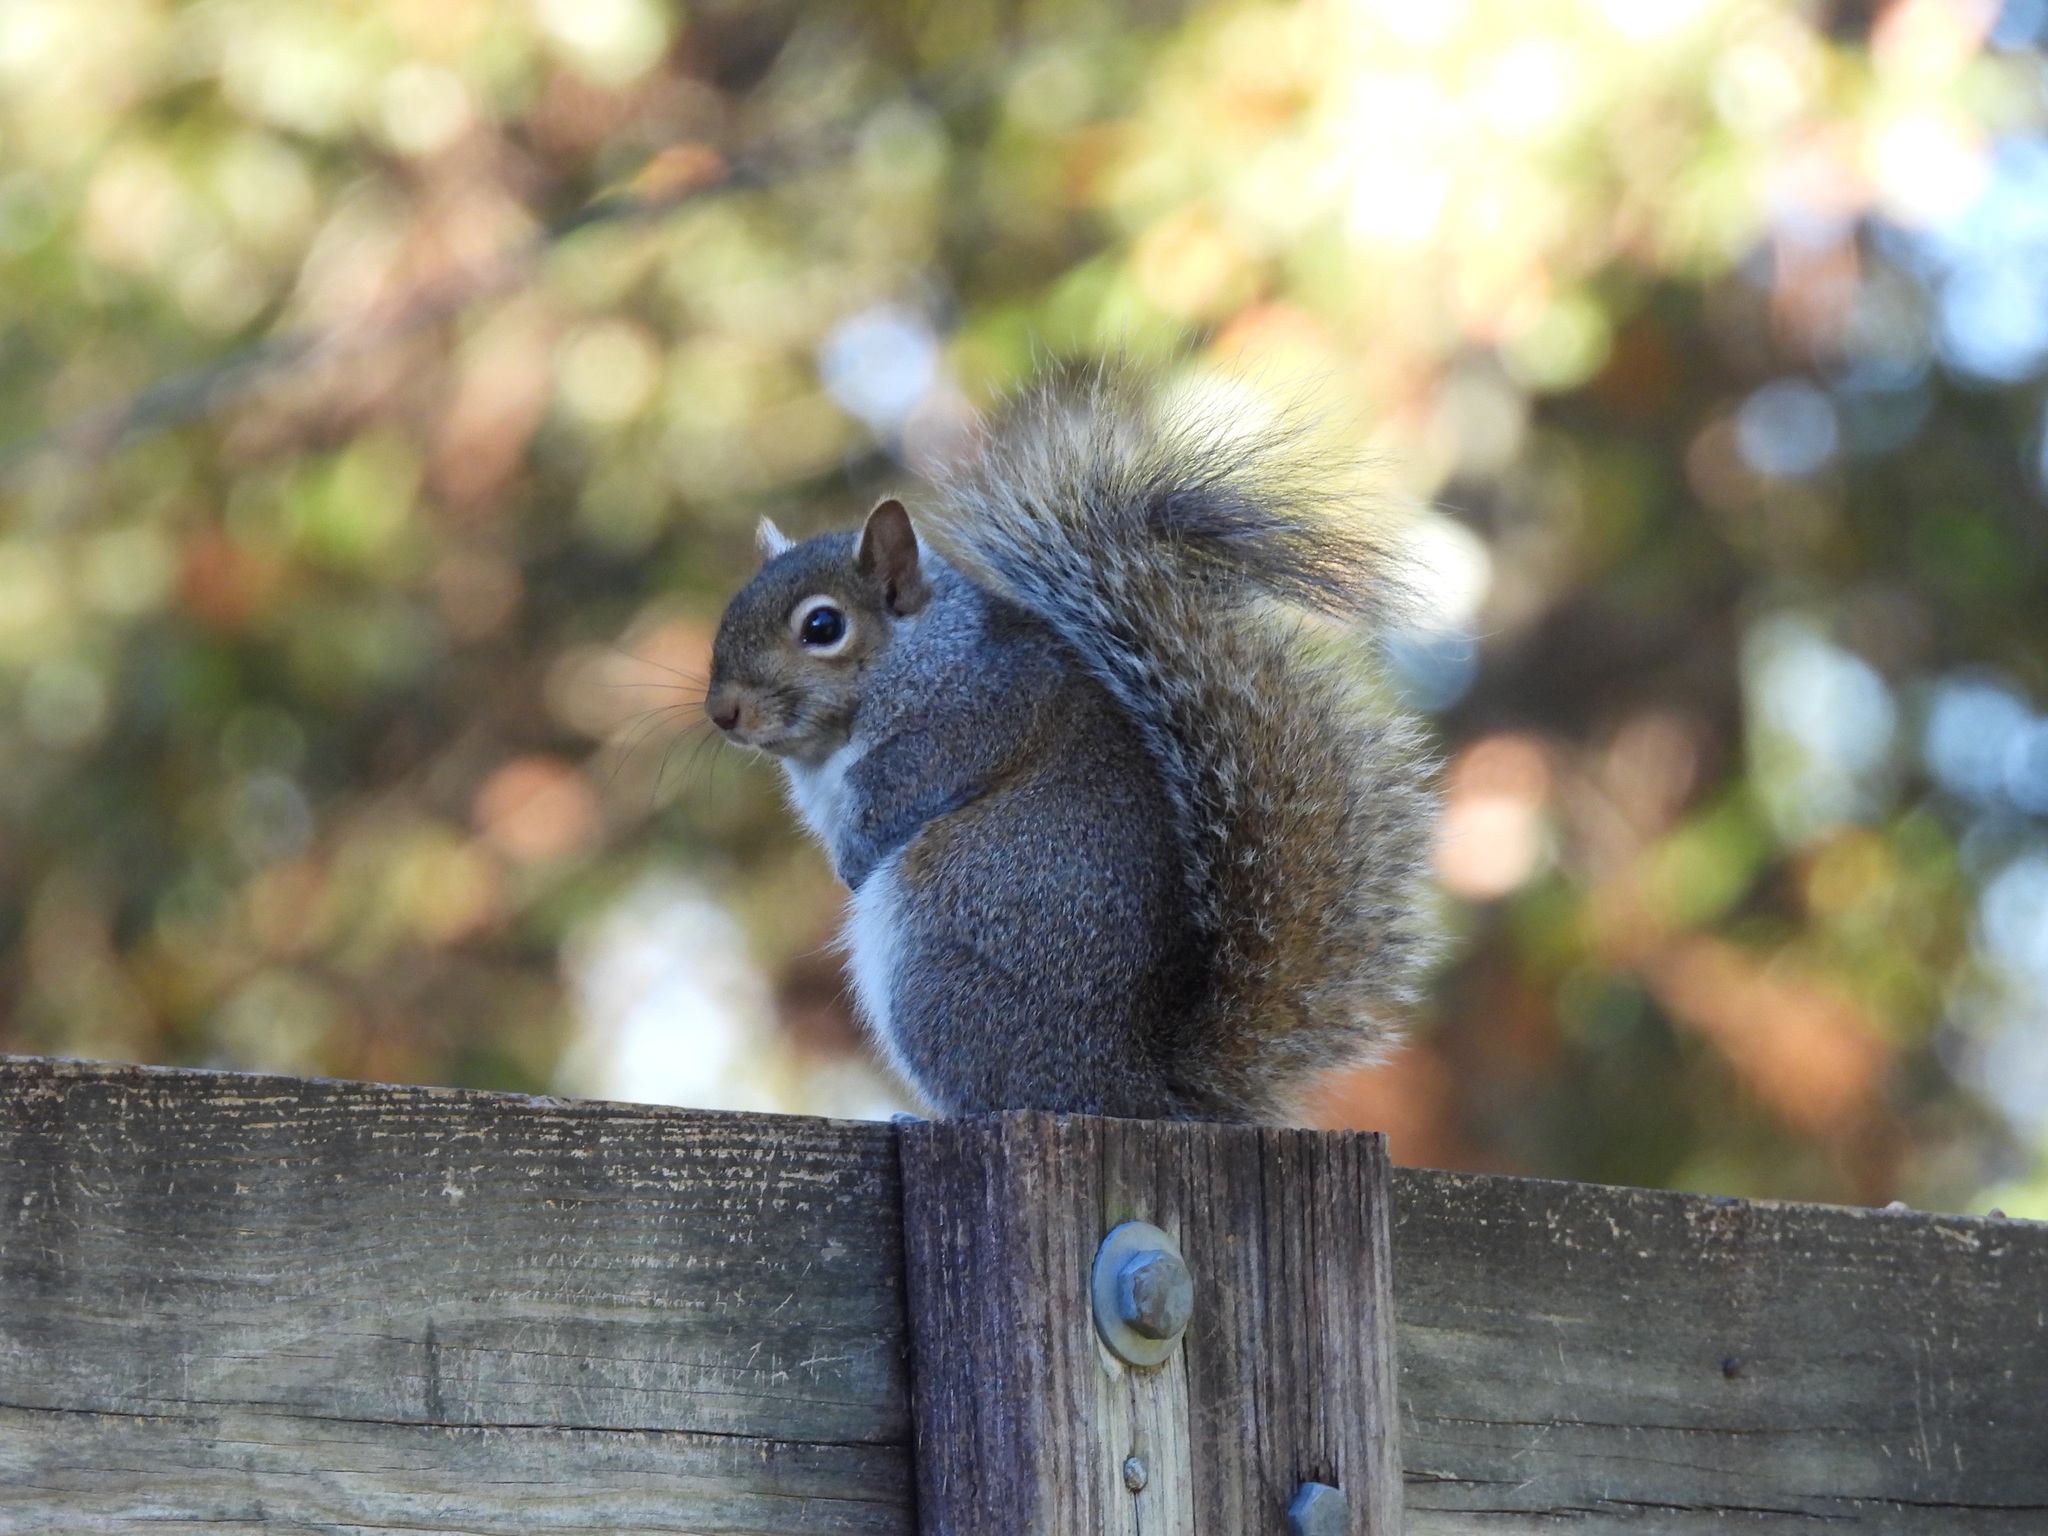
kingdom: Animalia
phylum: Chordata
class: Mammalia
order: Rodentia
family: Sciuridae
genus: Sciurus
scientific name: Sciurus carolinensis
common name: Eastern gray squirrel
